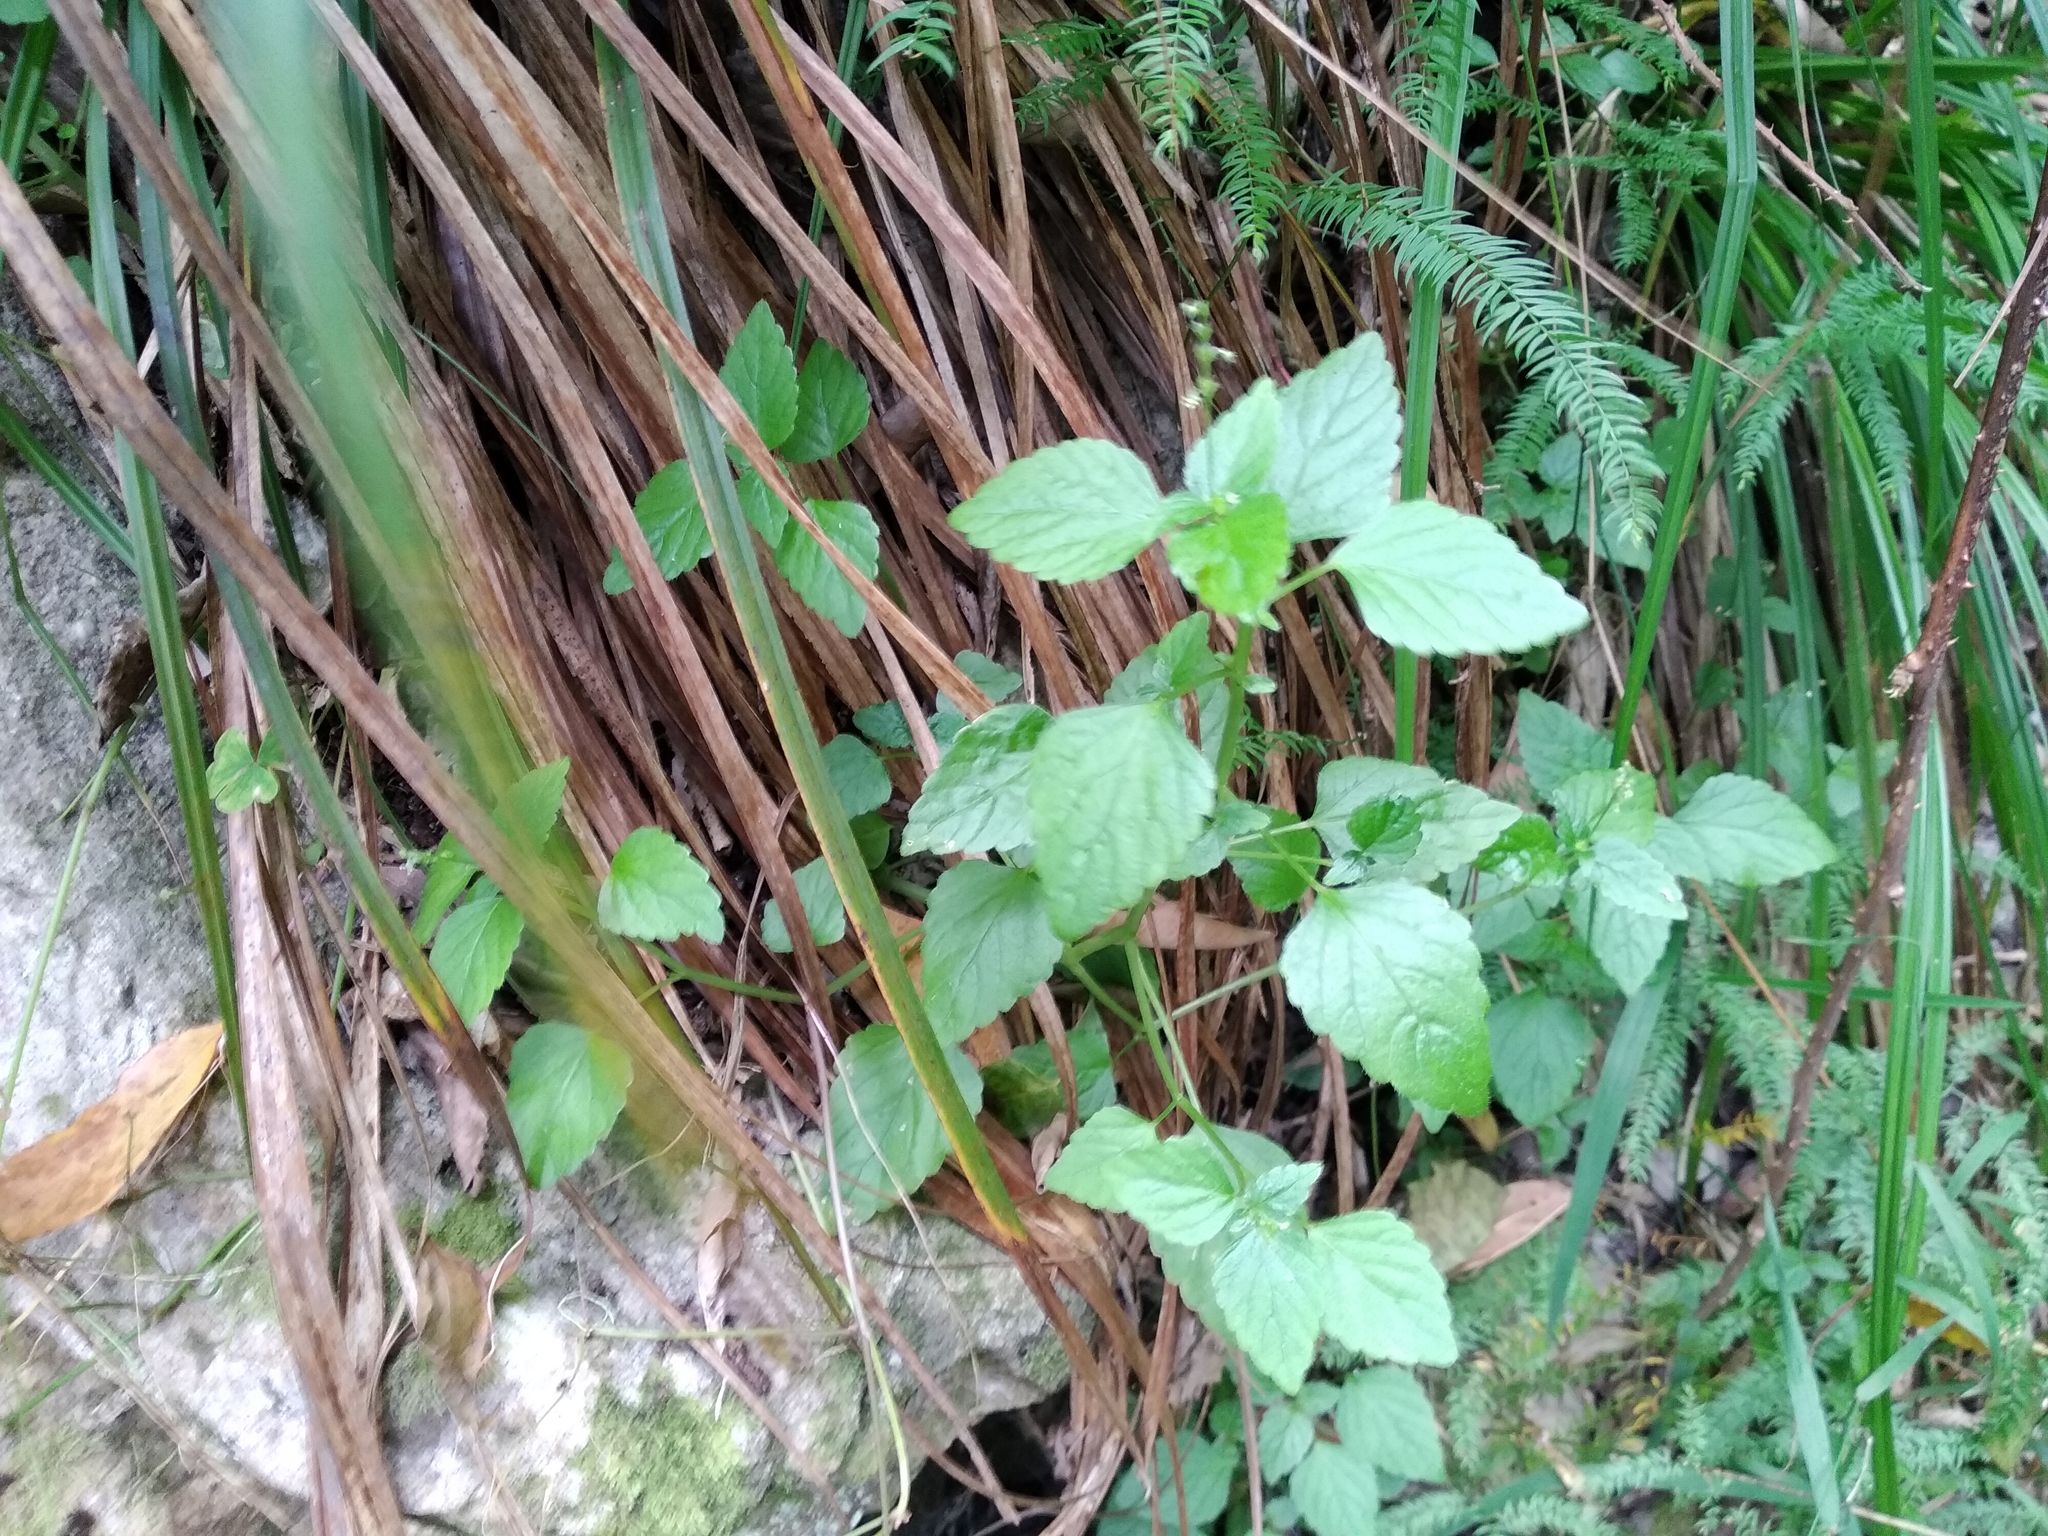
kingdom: Plantae
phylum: Tracheophyta
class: Magnoliopsida
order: Malpighiales
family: Euphorbiaceae
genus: Leidesia
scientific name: Leidesia procumbens
